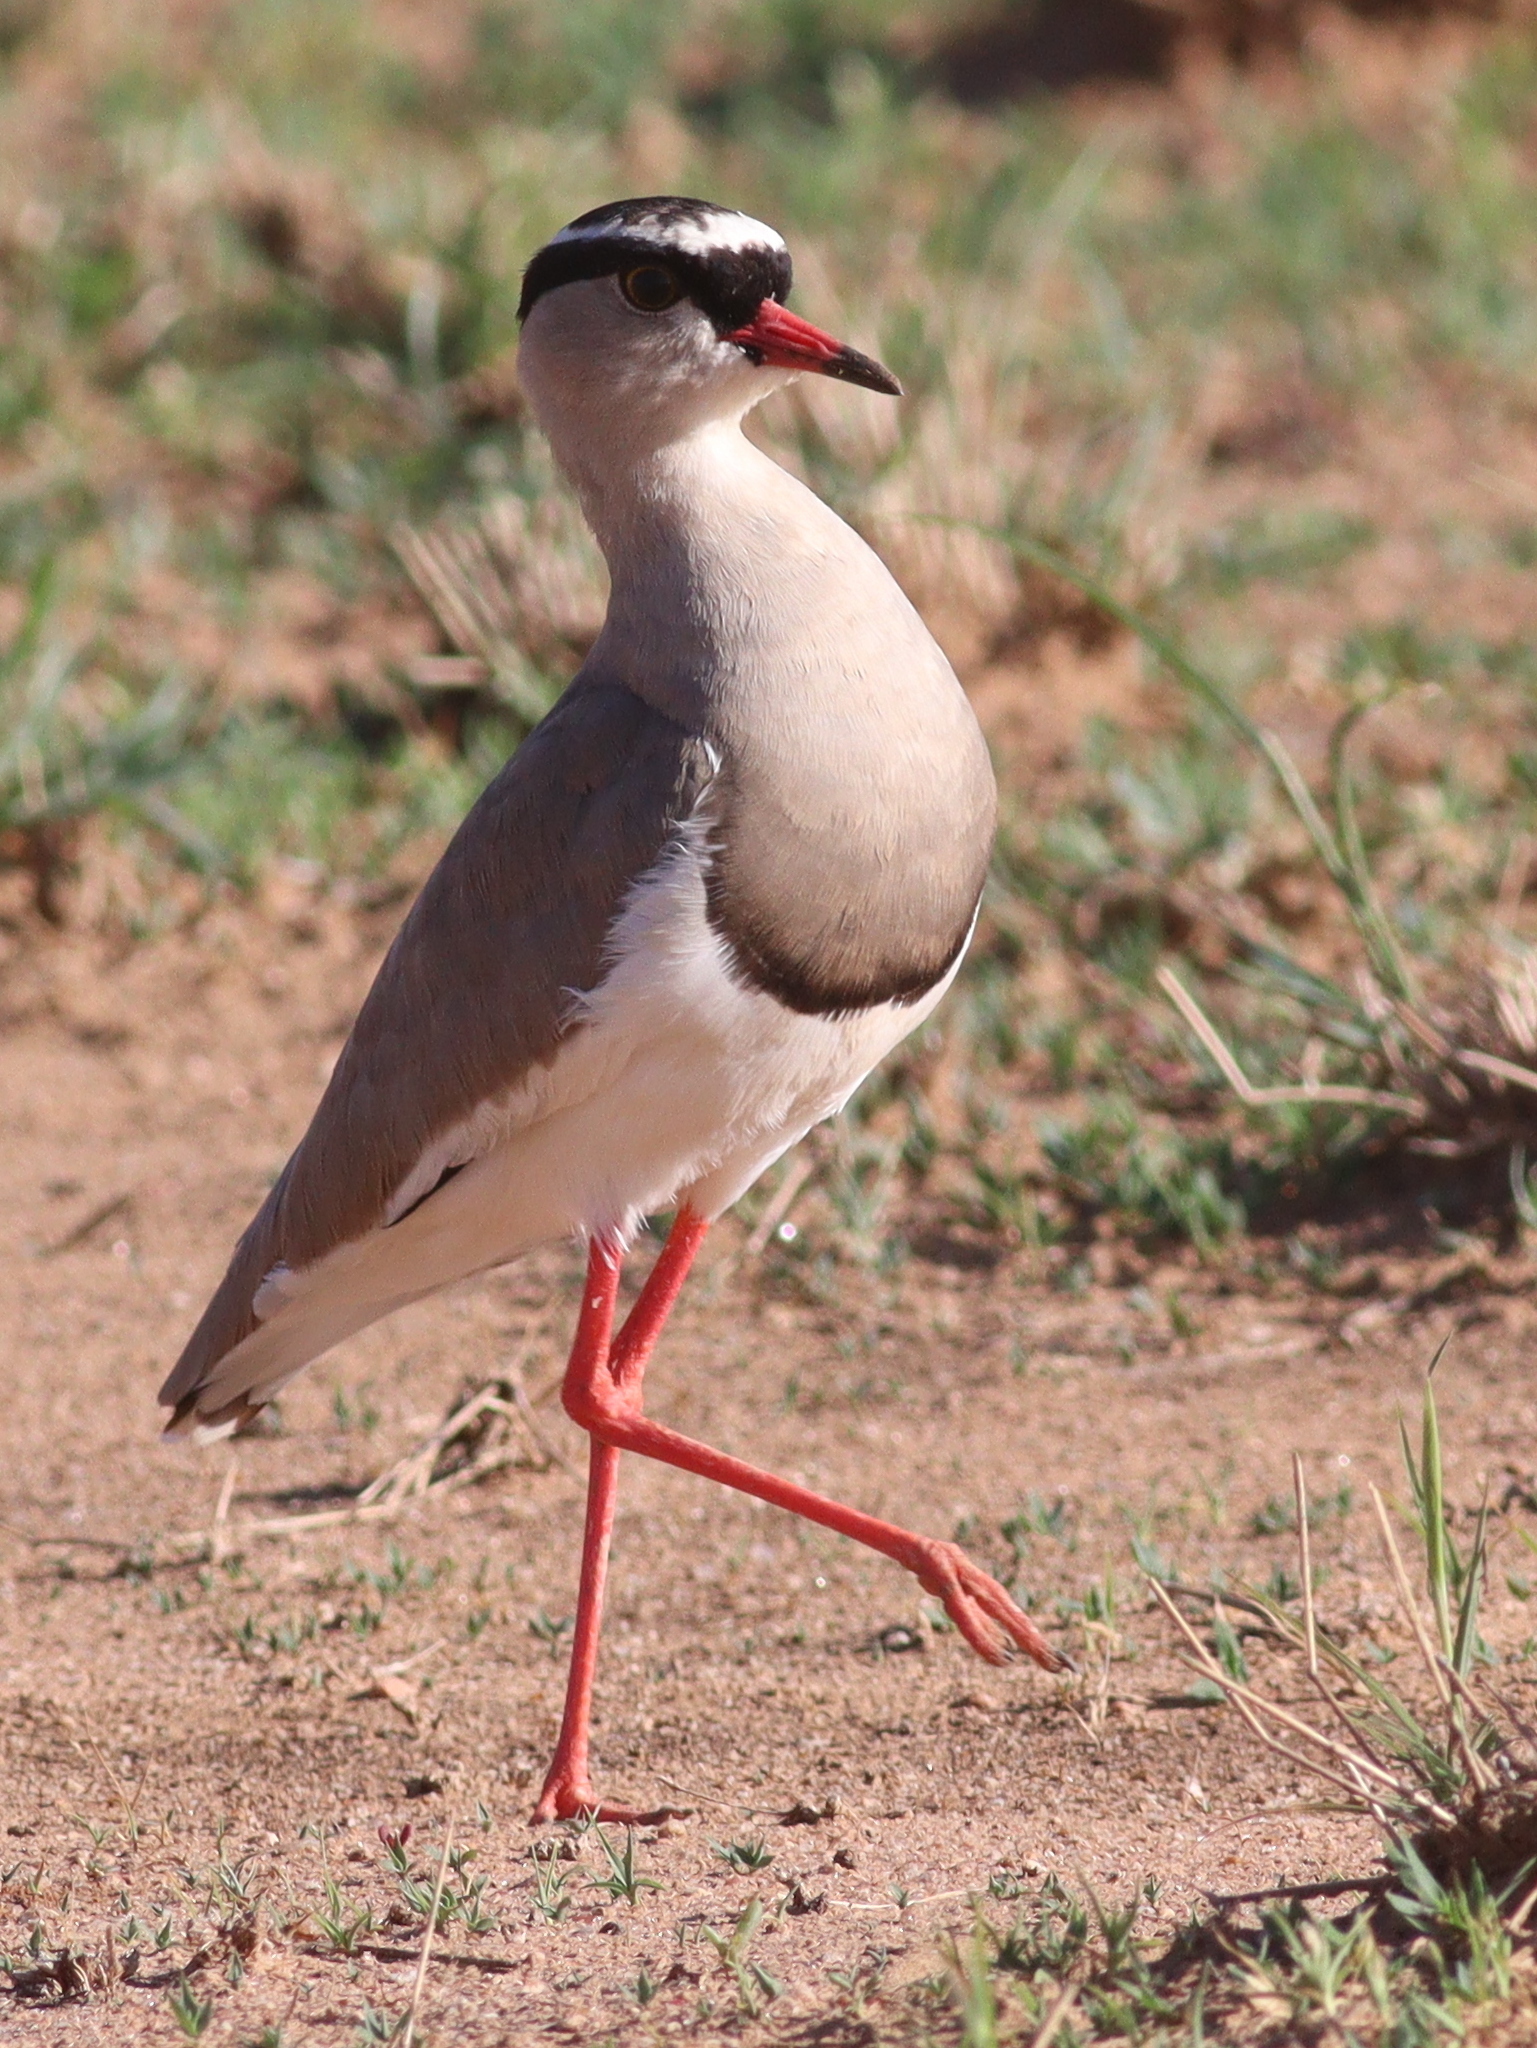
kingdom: Animalia
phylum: Chordata
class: Aves
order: Charadriiformes
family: Charadriidae
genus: Vanellus
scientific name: Vanellus coronatus
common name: Crowned lapwing
